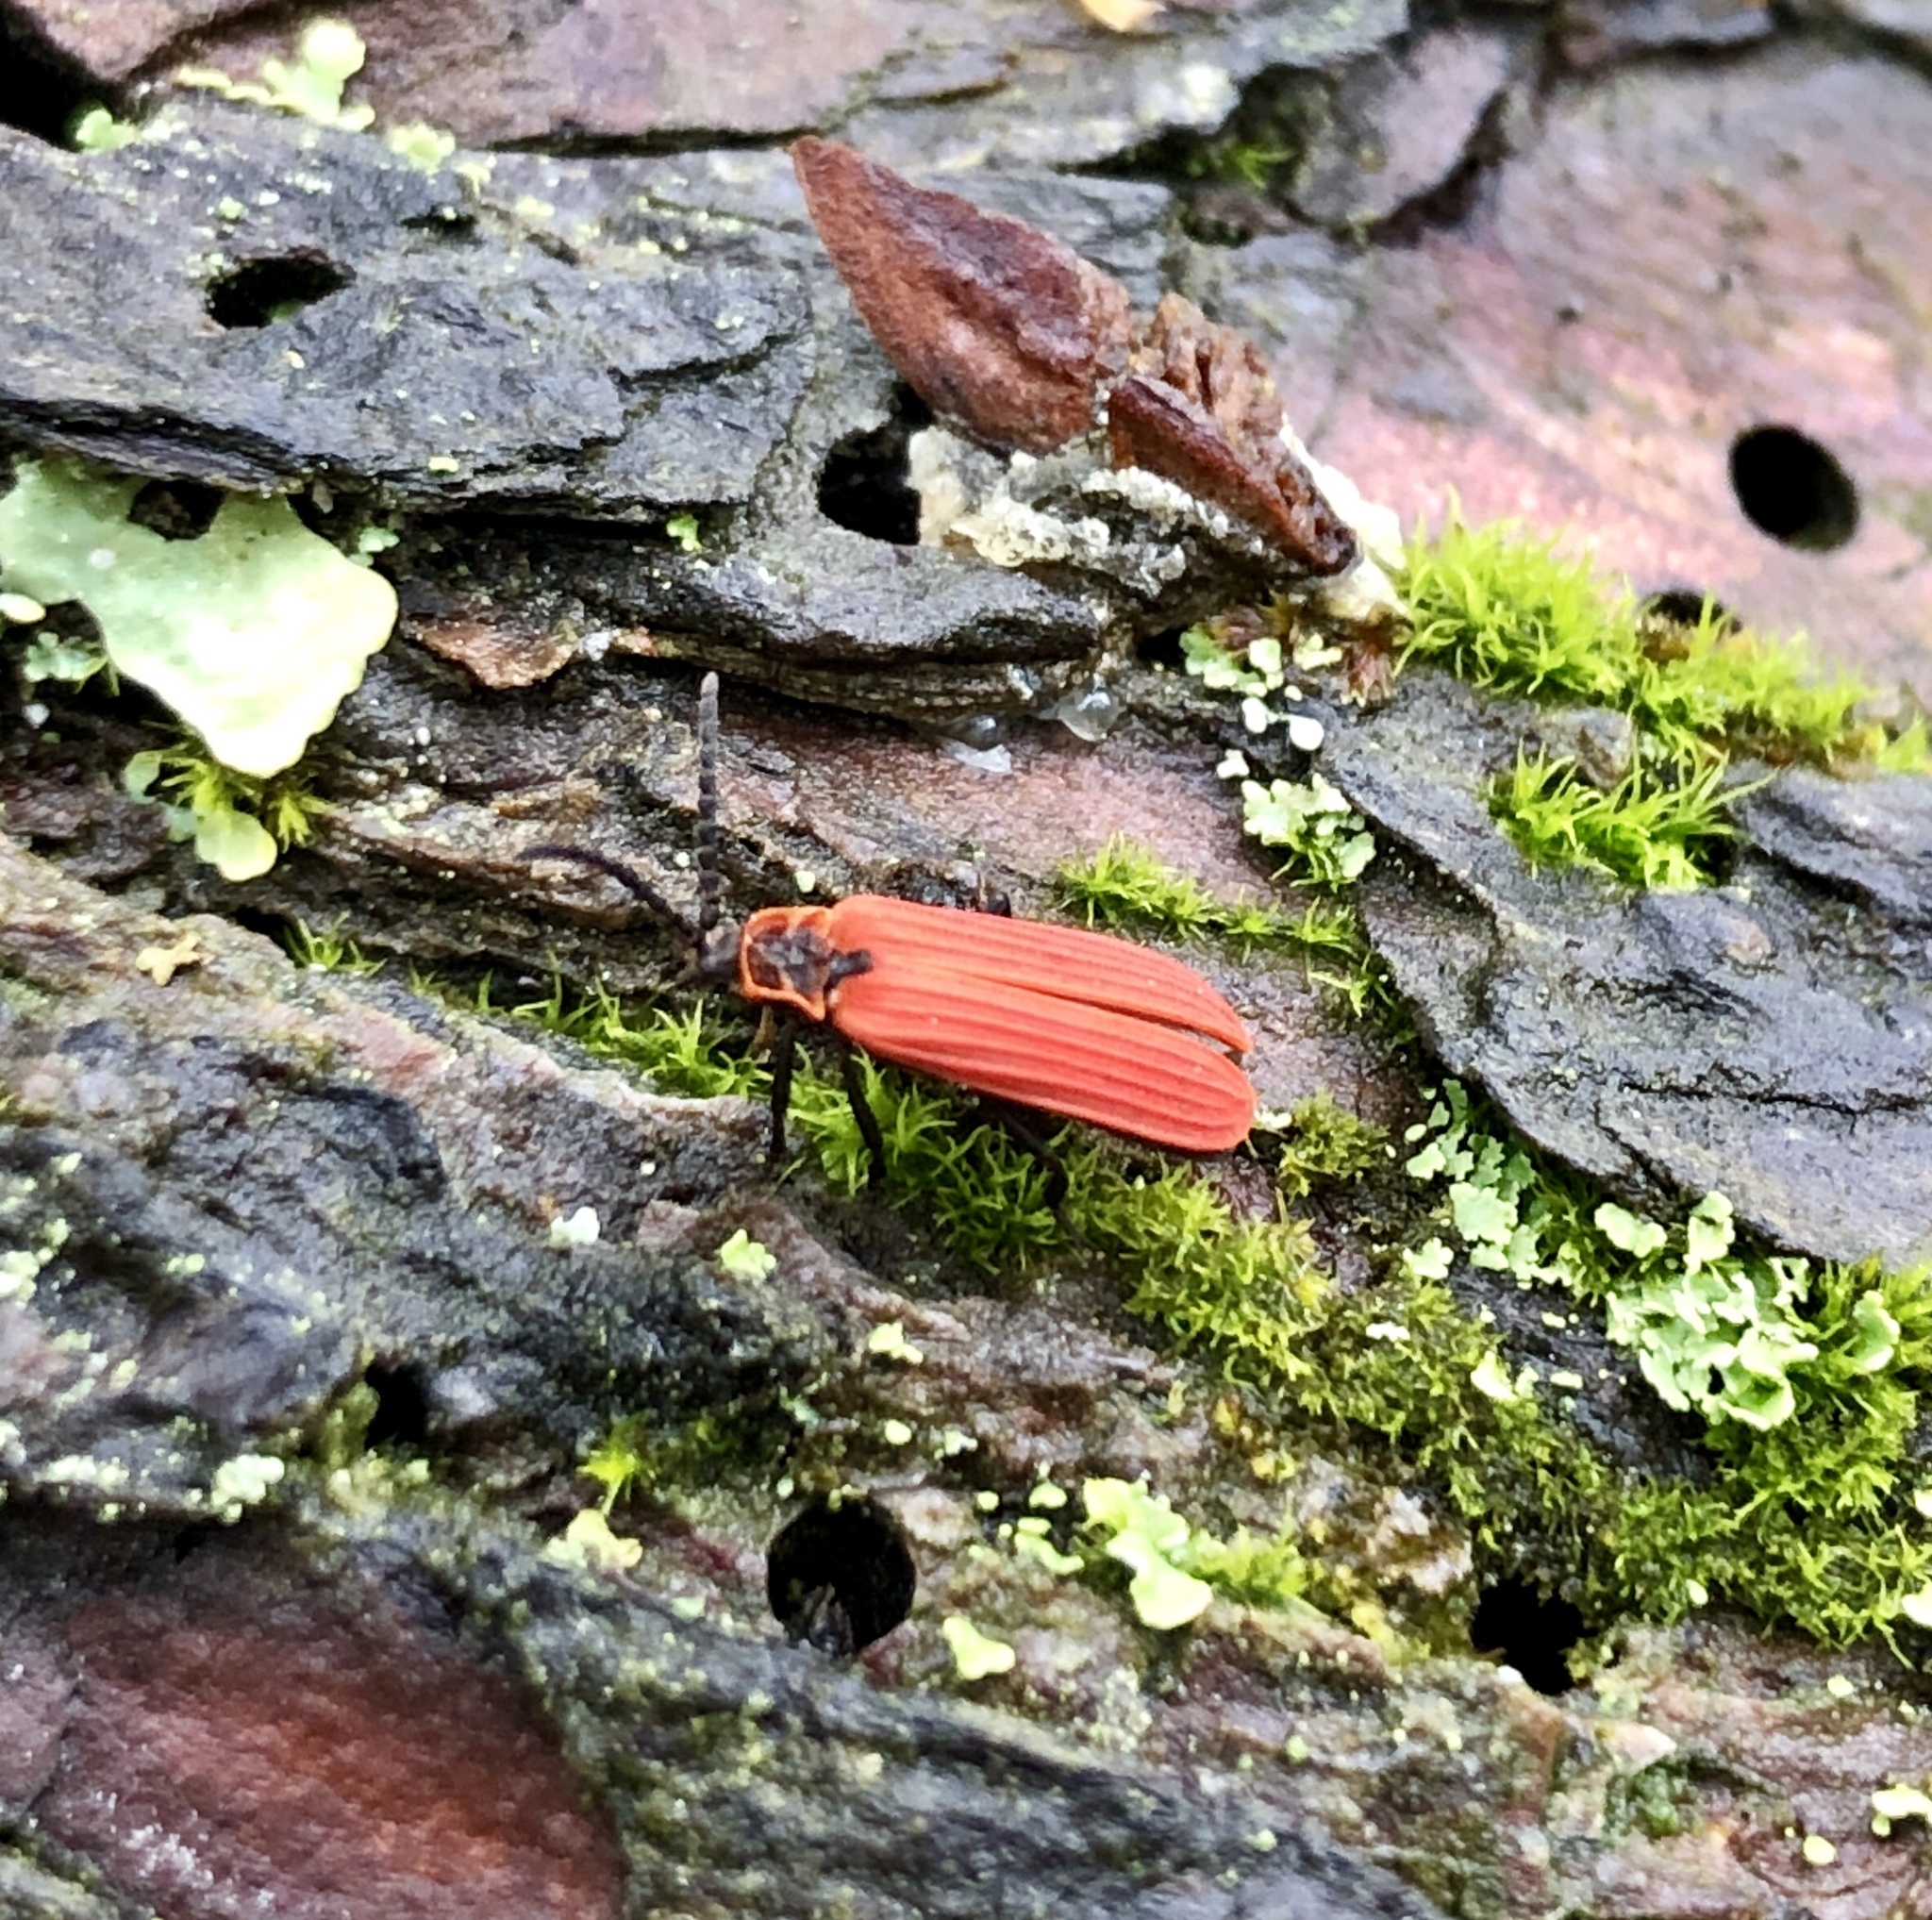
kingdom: Animalia
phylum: Arthropoda
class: Insecta
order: Coleoptera
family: Lycidae
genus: Dictyoptera
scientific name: Dictyoptera aurora
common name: Golden net-winged beetle
